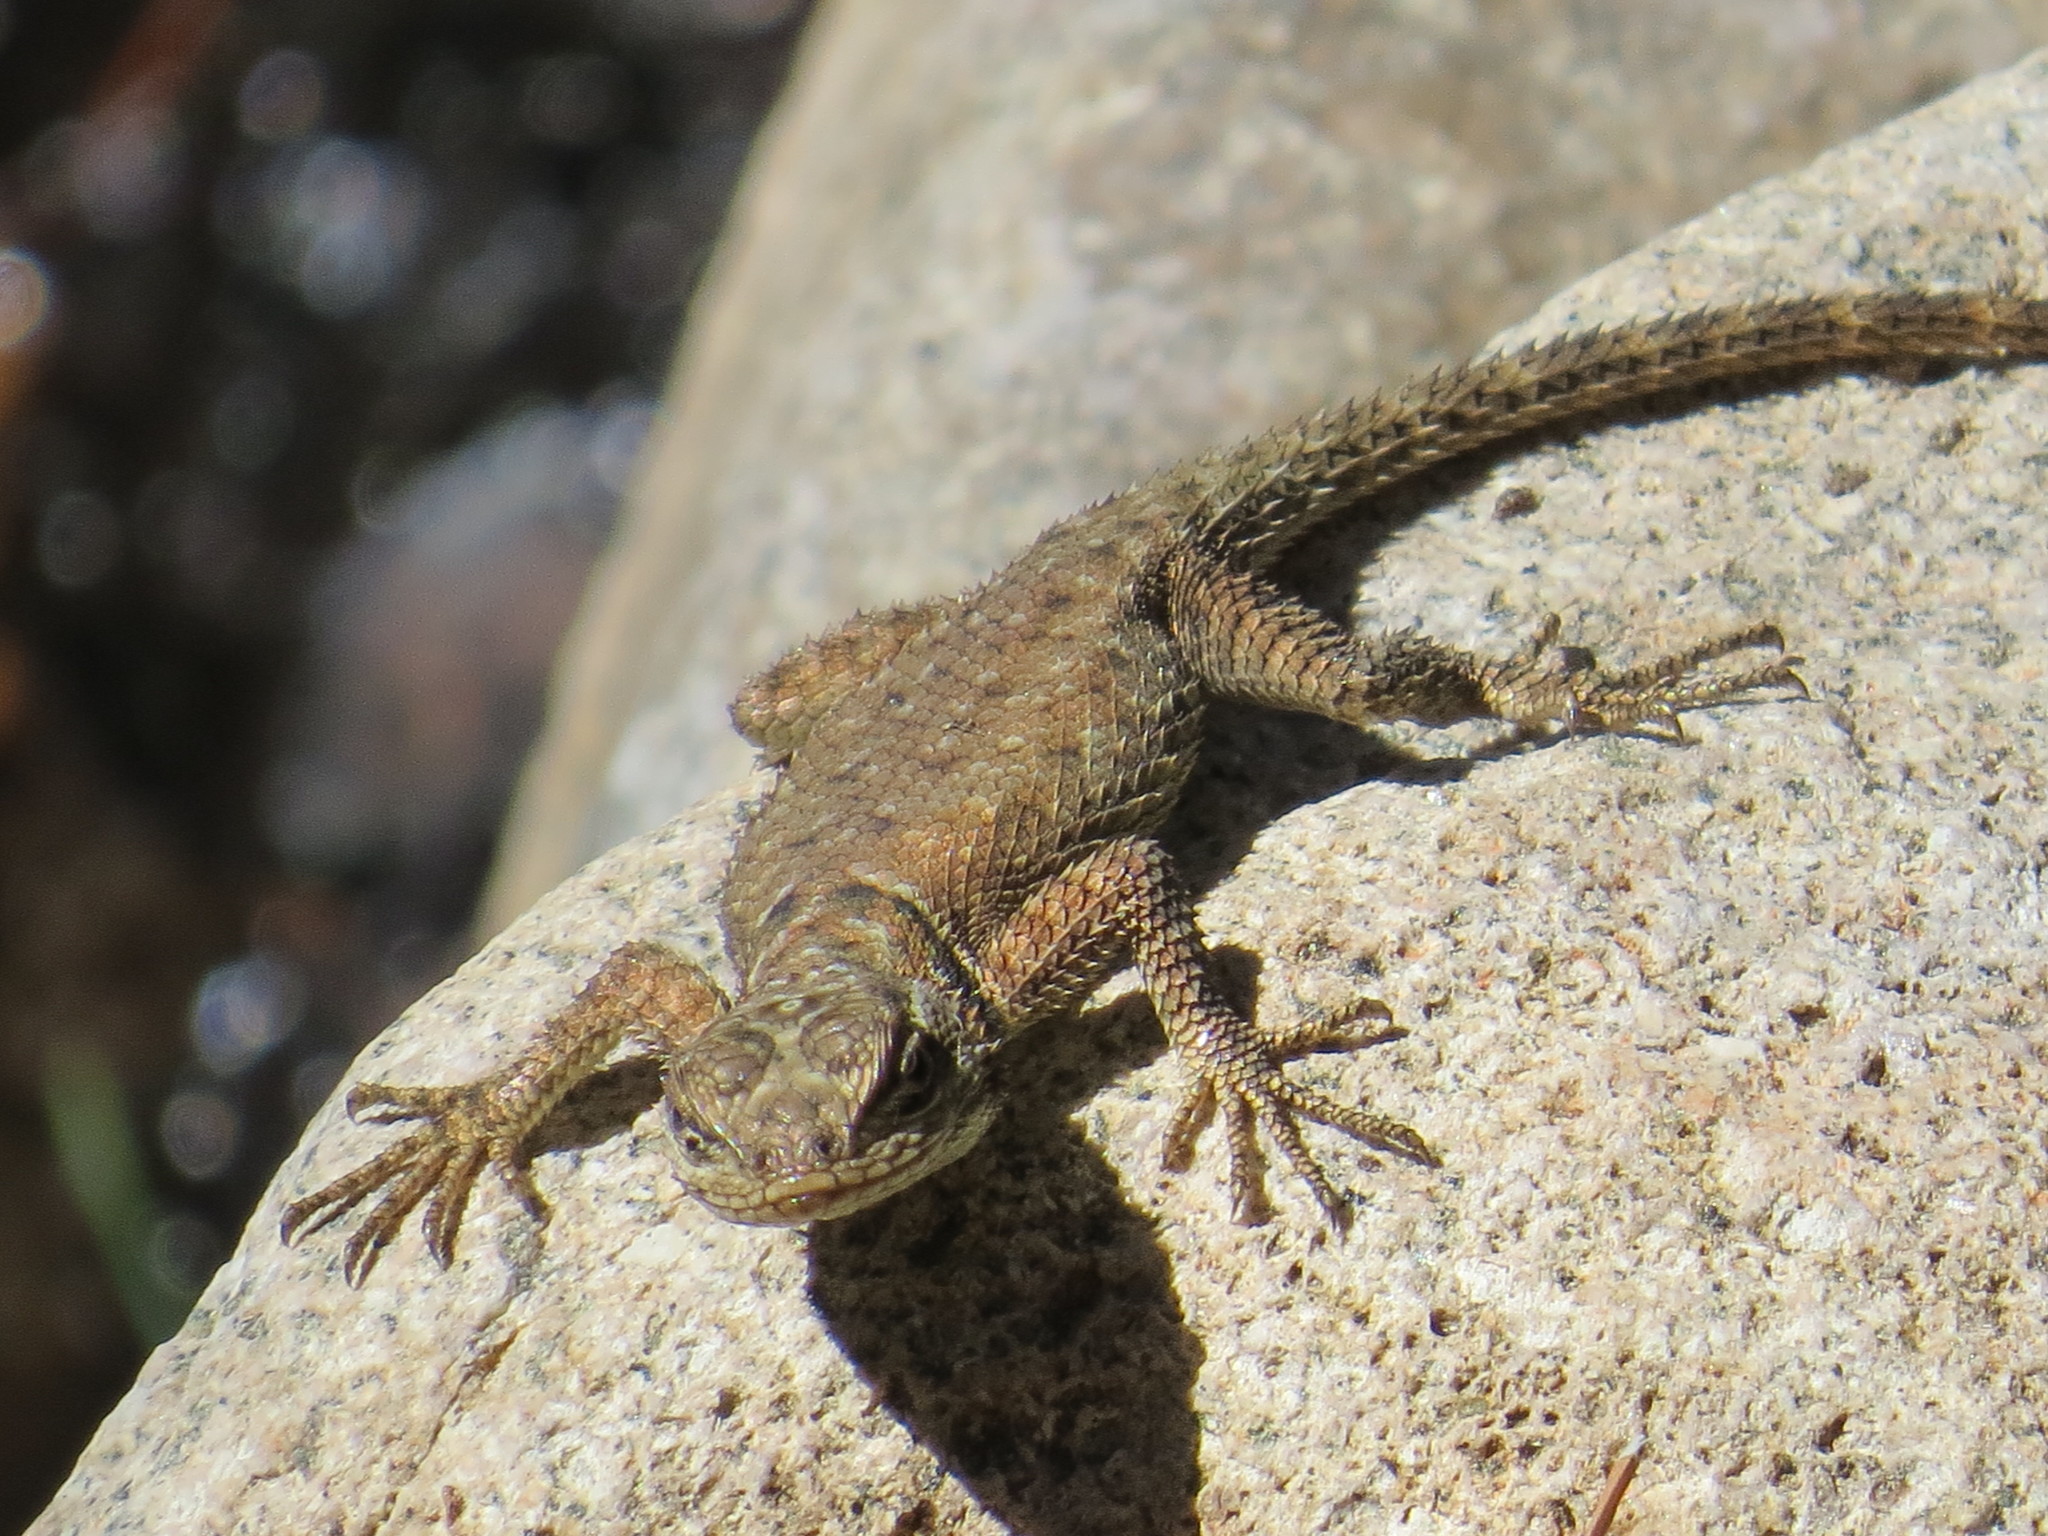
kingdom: Animalia
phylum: Chordata
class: Squamata
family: Phrynosomatidae
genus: Sceloporus
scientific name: Sceloporus jarrovii
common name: Yarrow's spiny lizard
